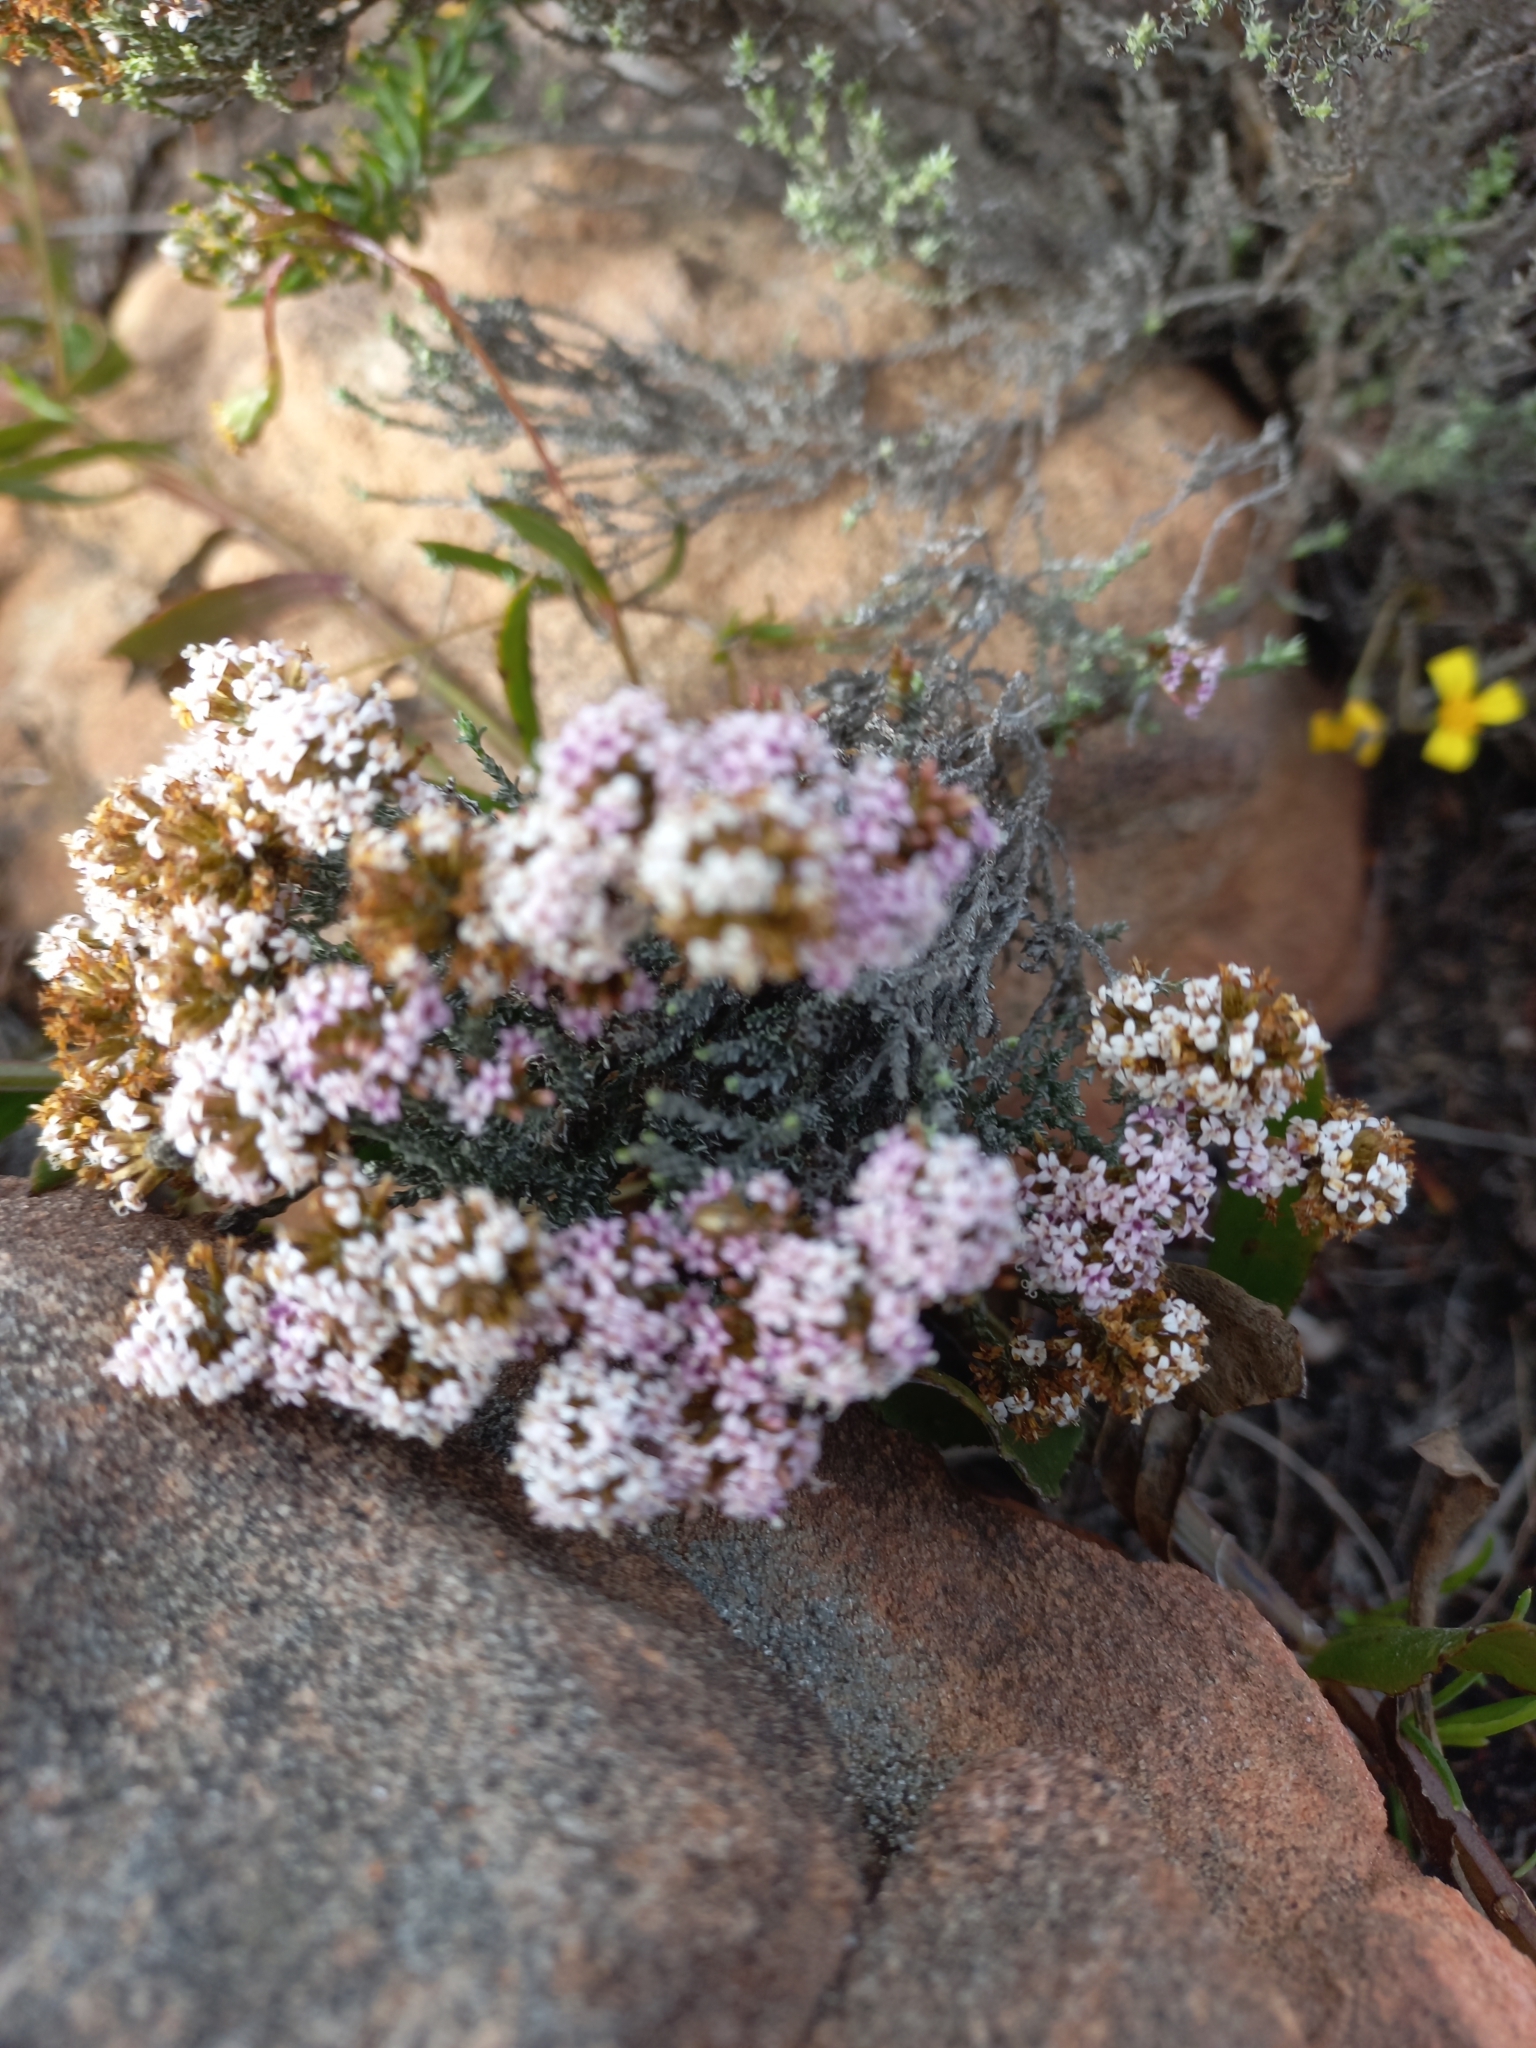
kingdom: Plantae
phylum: Tracheophyta
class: Magnoliopsida
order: Asterales
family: Asteraceae
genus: Stoebe
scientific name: Stoebe fusca
